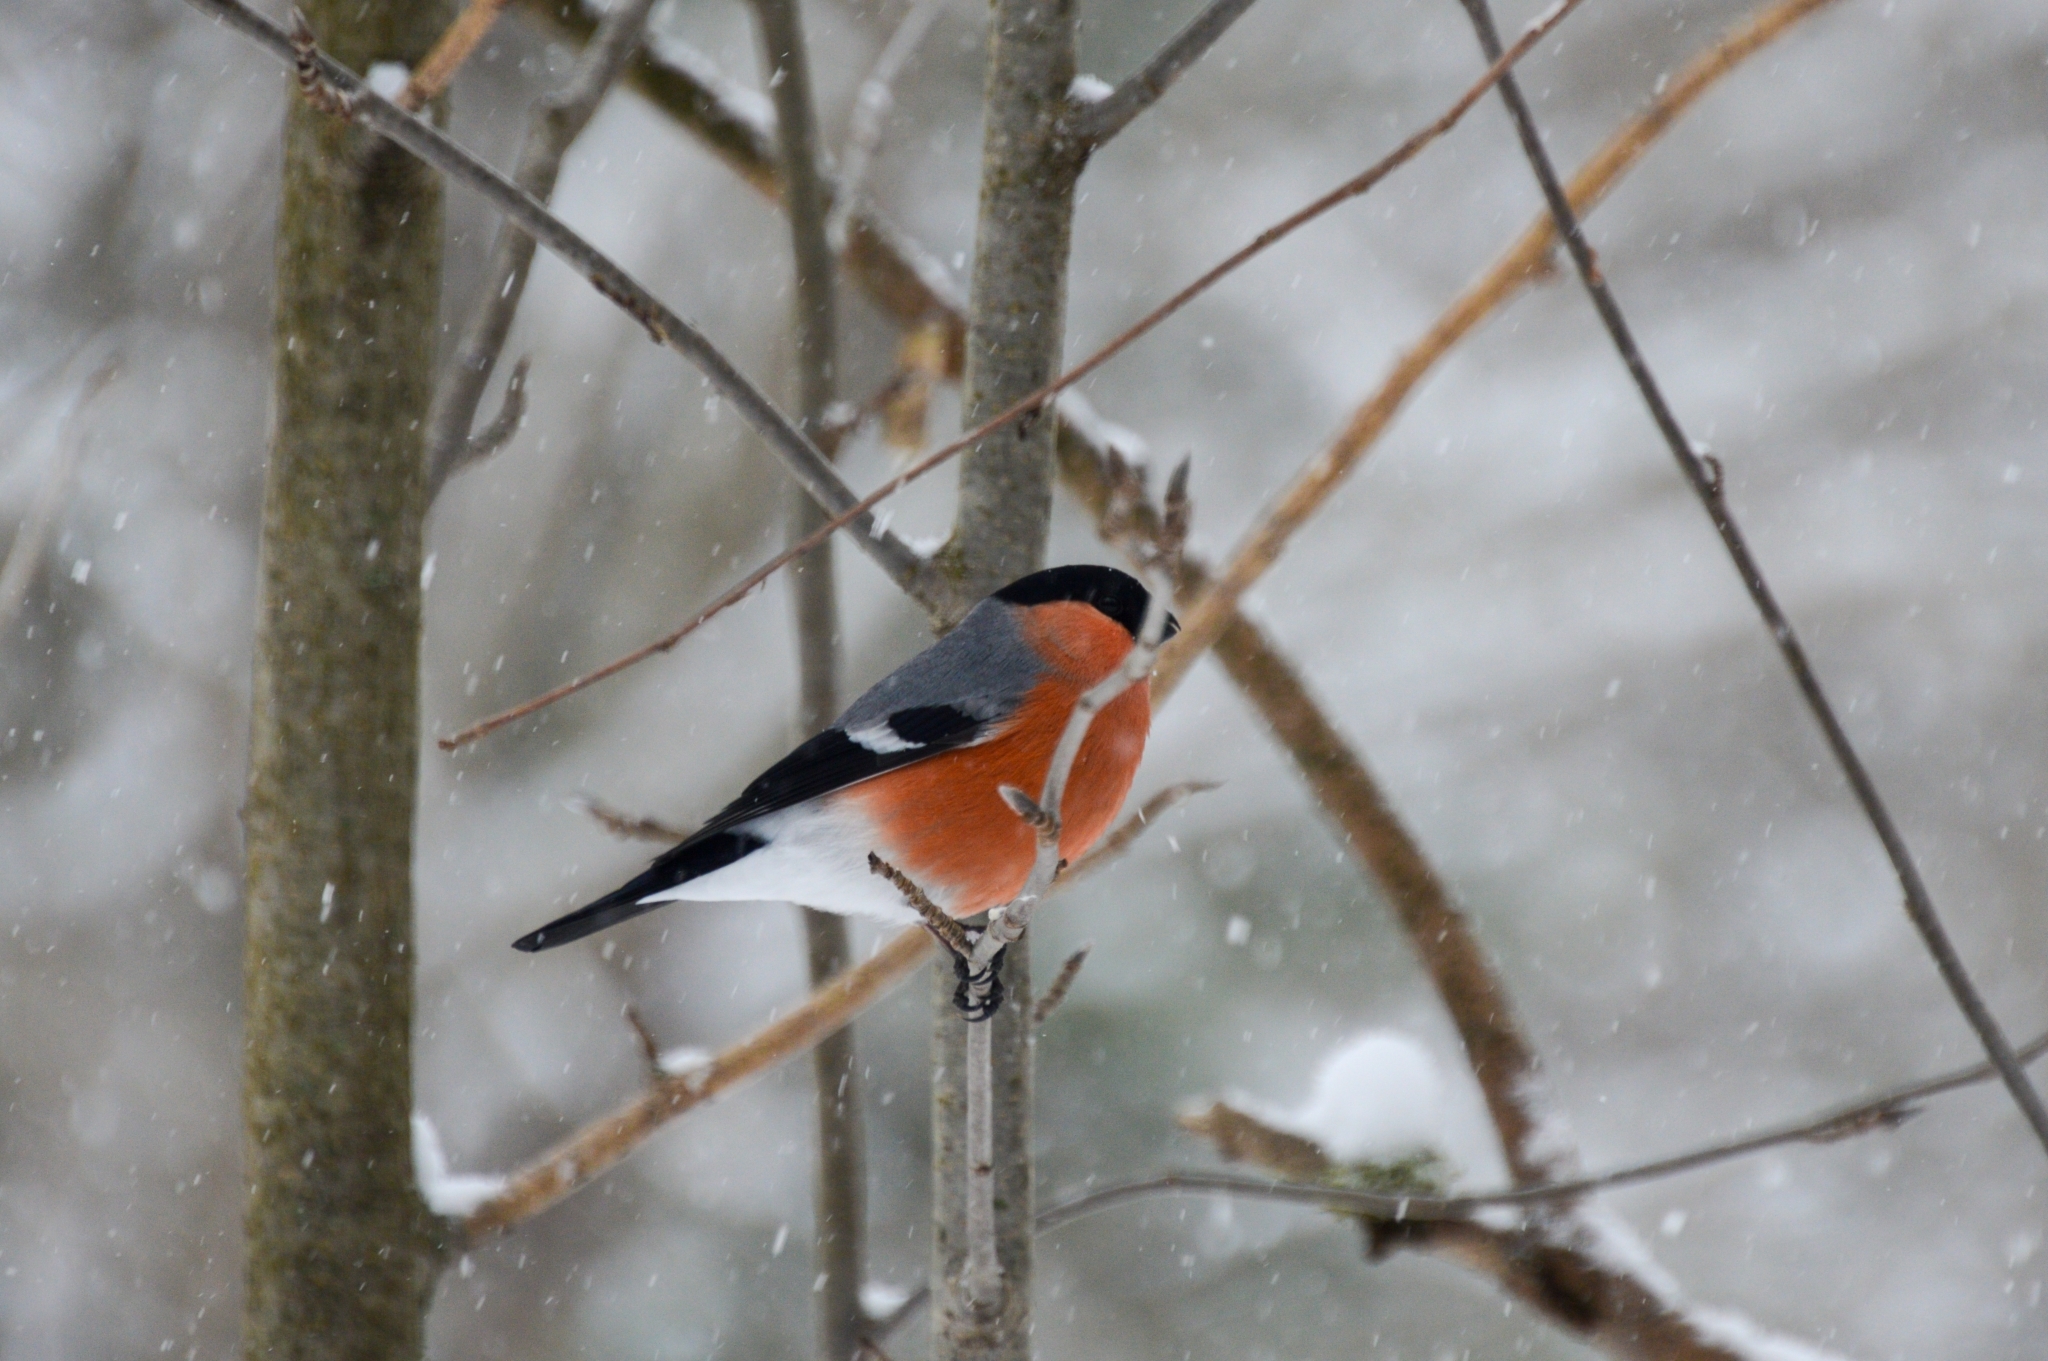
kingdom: Animalia
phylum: Chordata
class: Aves
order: Passeriformes
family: Fringillidae
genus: Pyrrhula
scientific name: Pyrrhula pyrrhula
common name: Eurasian bullfinch
